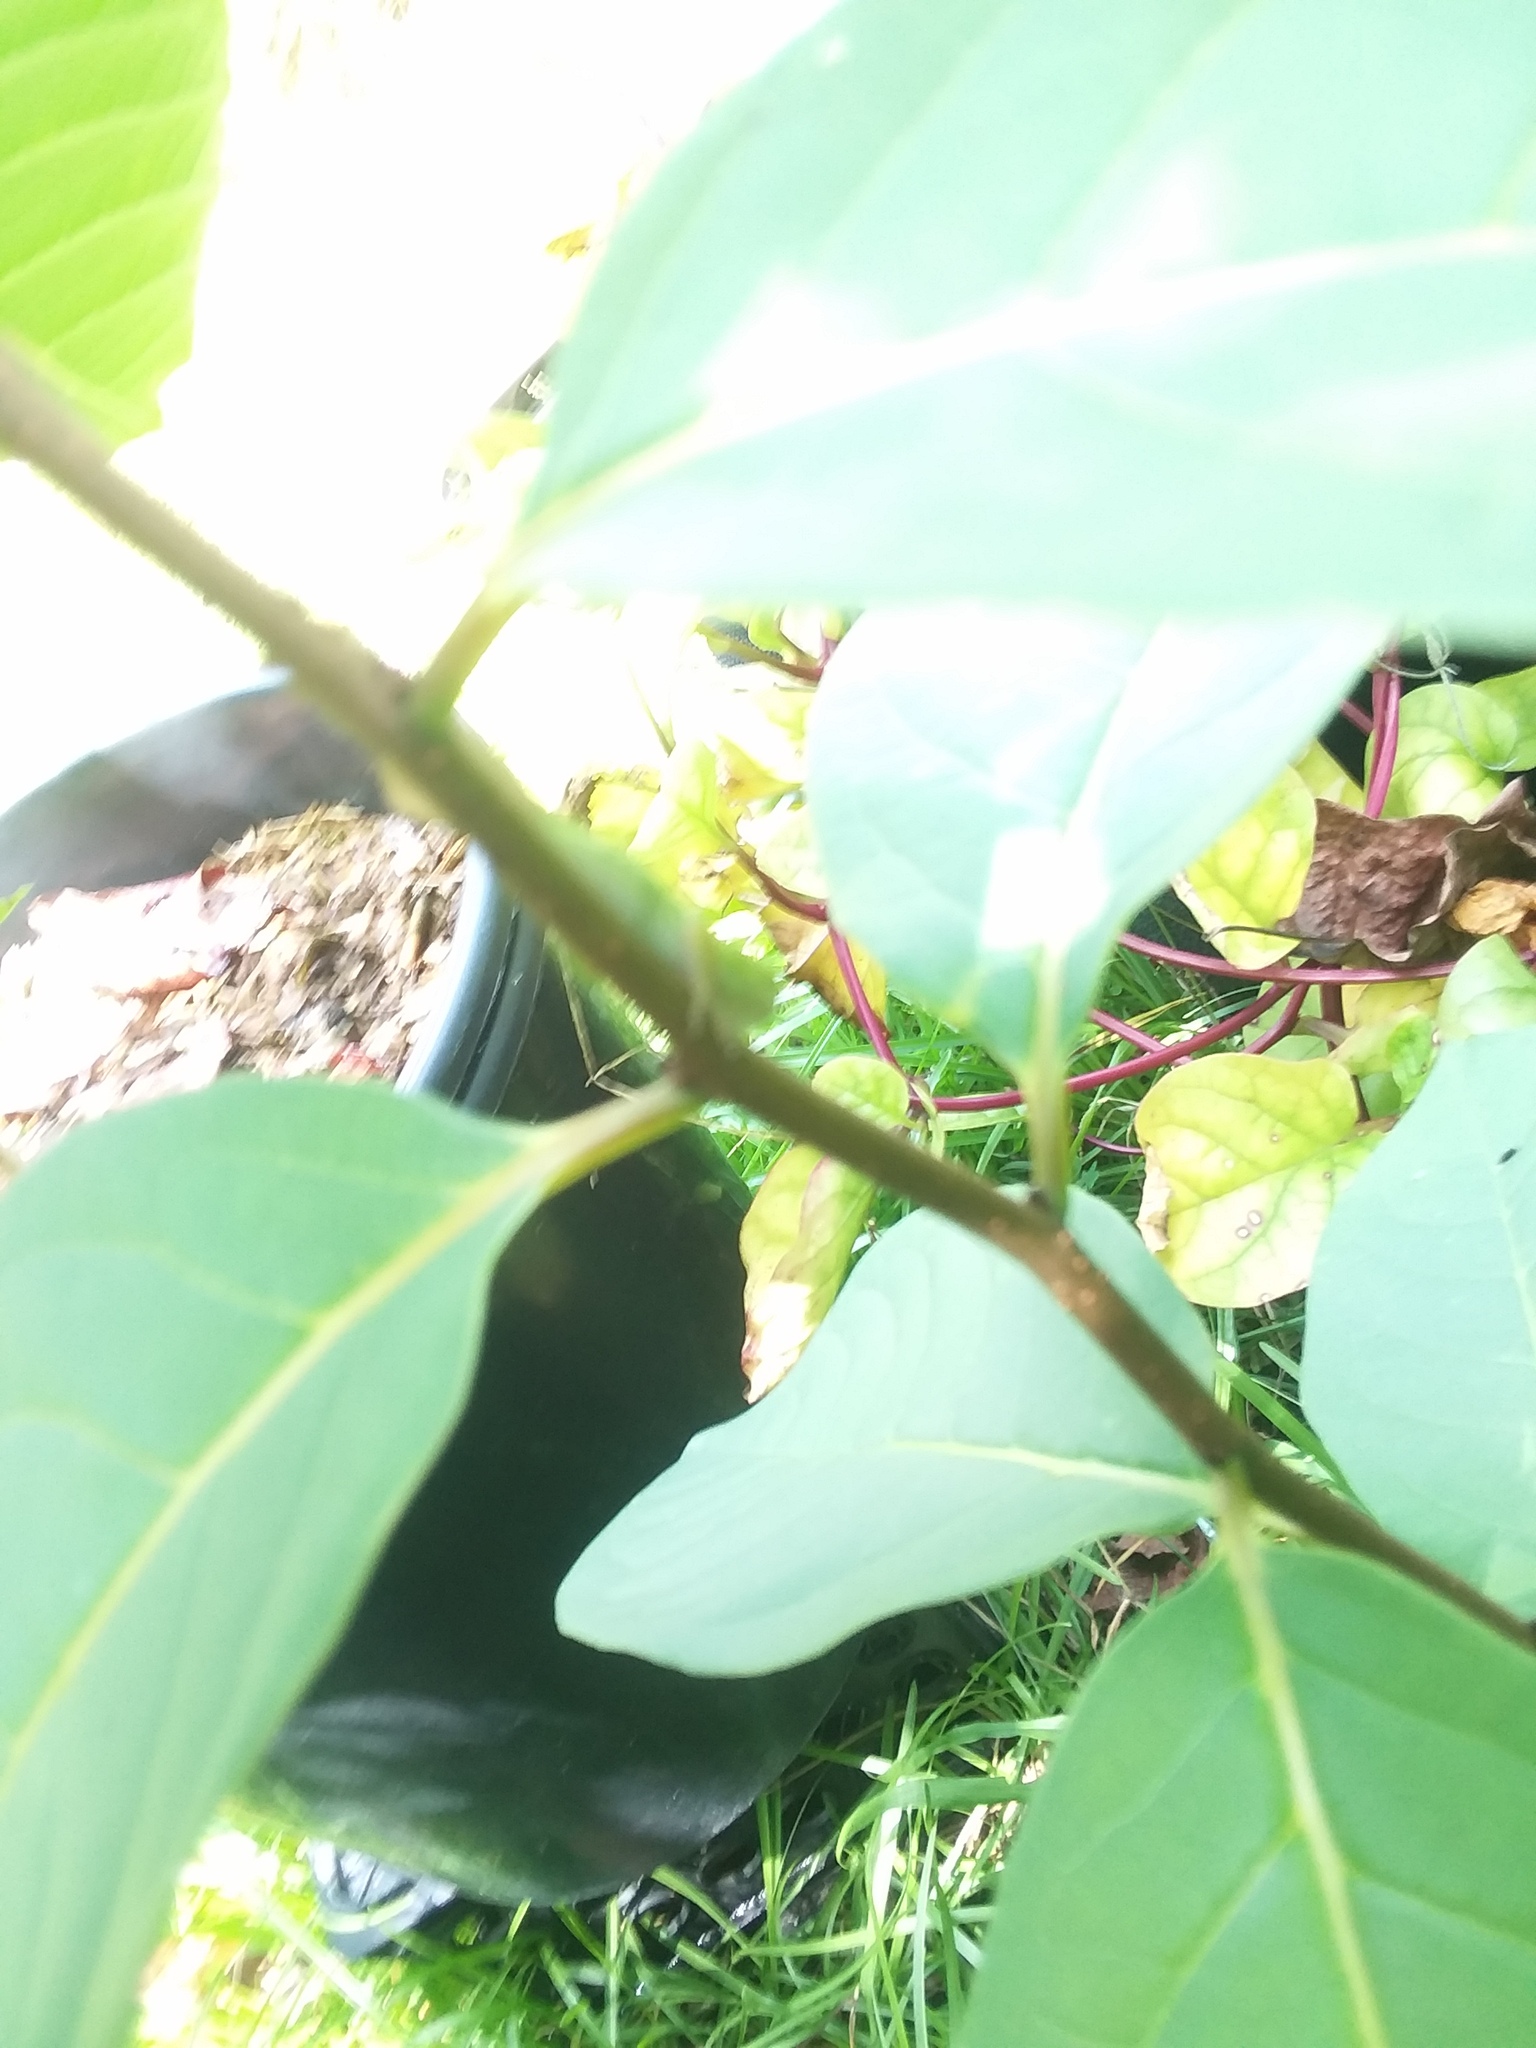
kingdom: Animalia
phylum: Chordata
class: Squamata
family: Dactyloidae
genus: Anolis
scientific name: Anolis carolinensis
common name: Green anole
